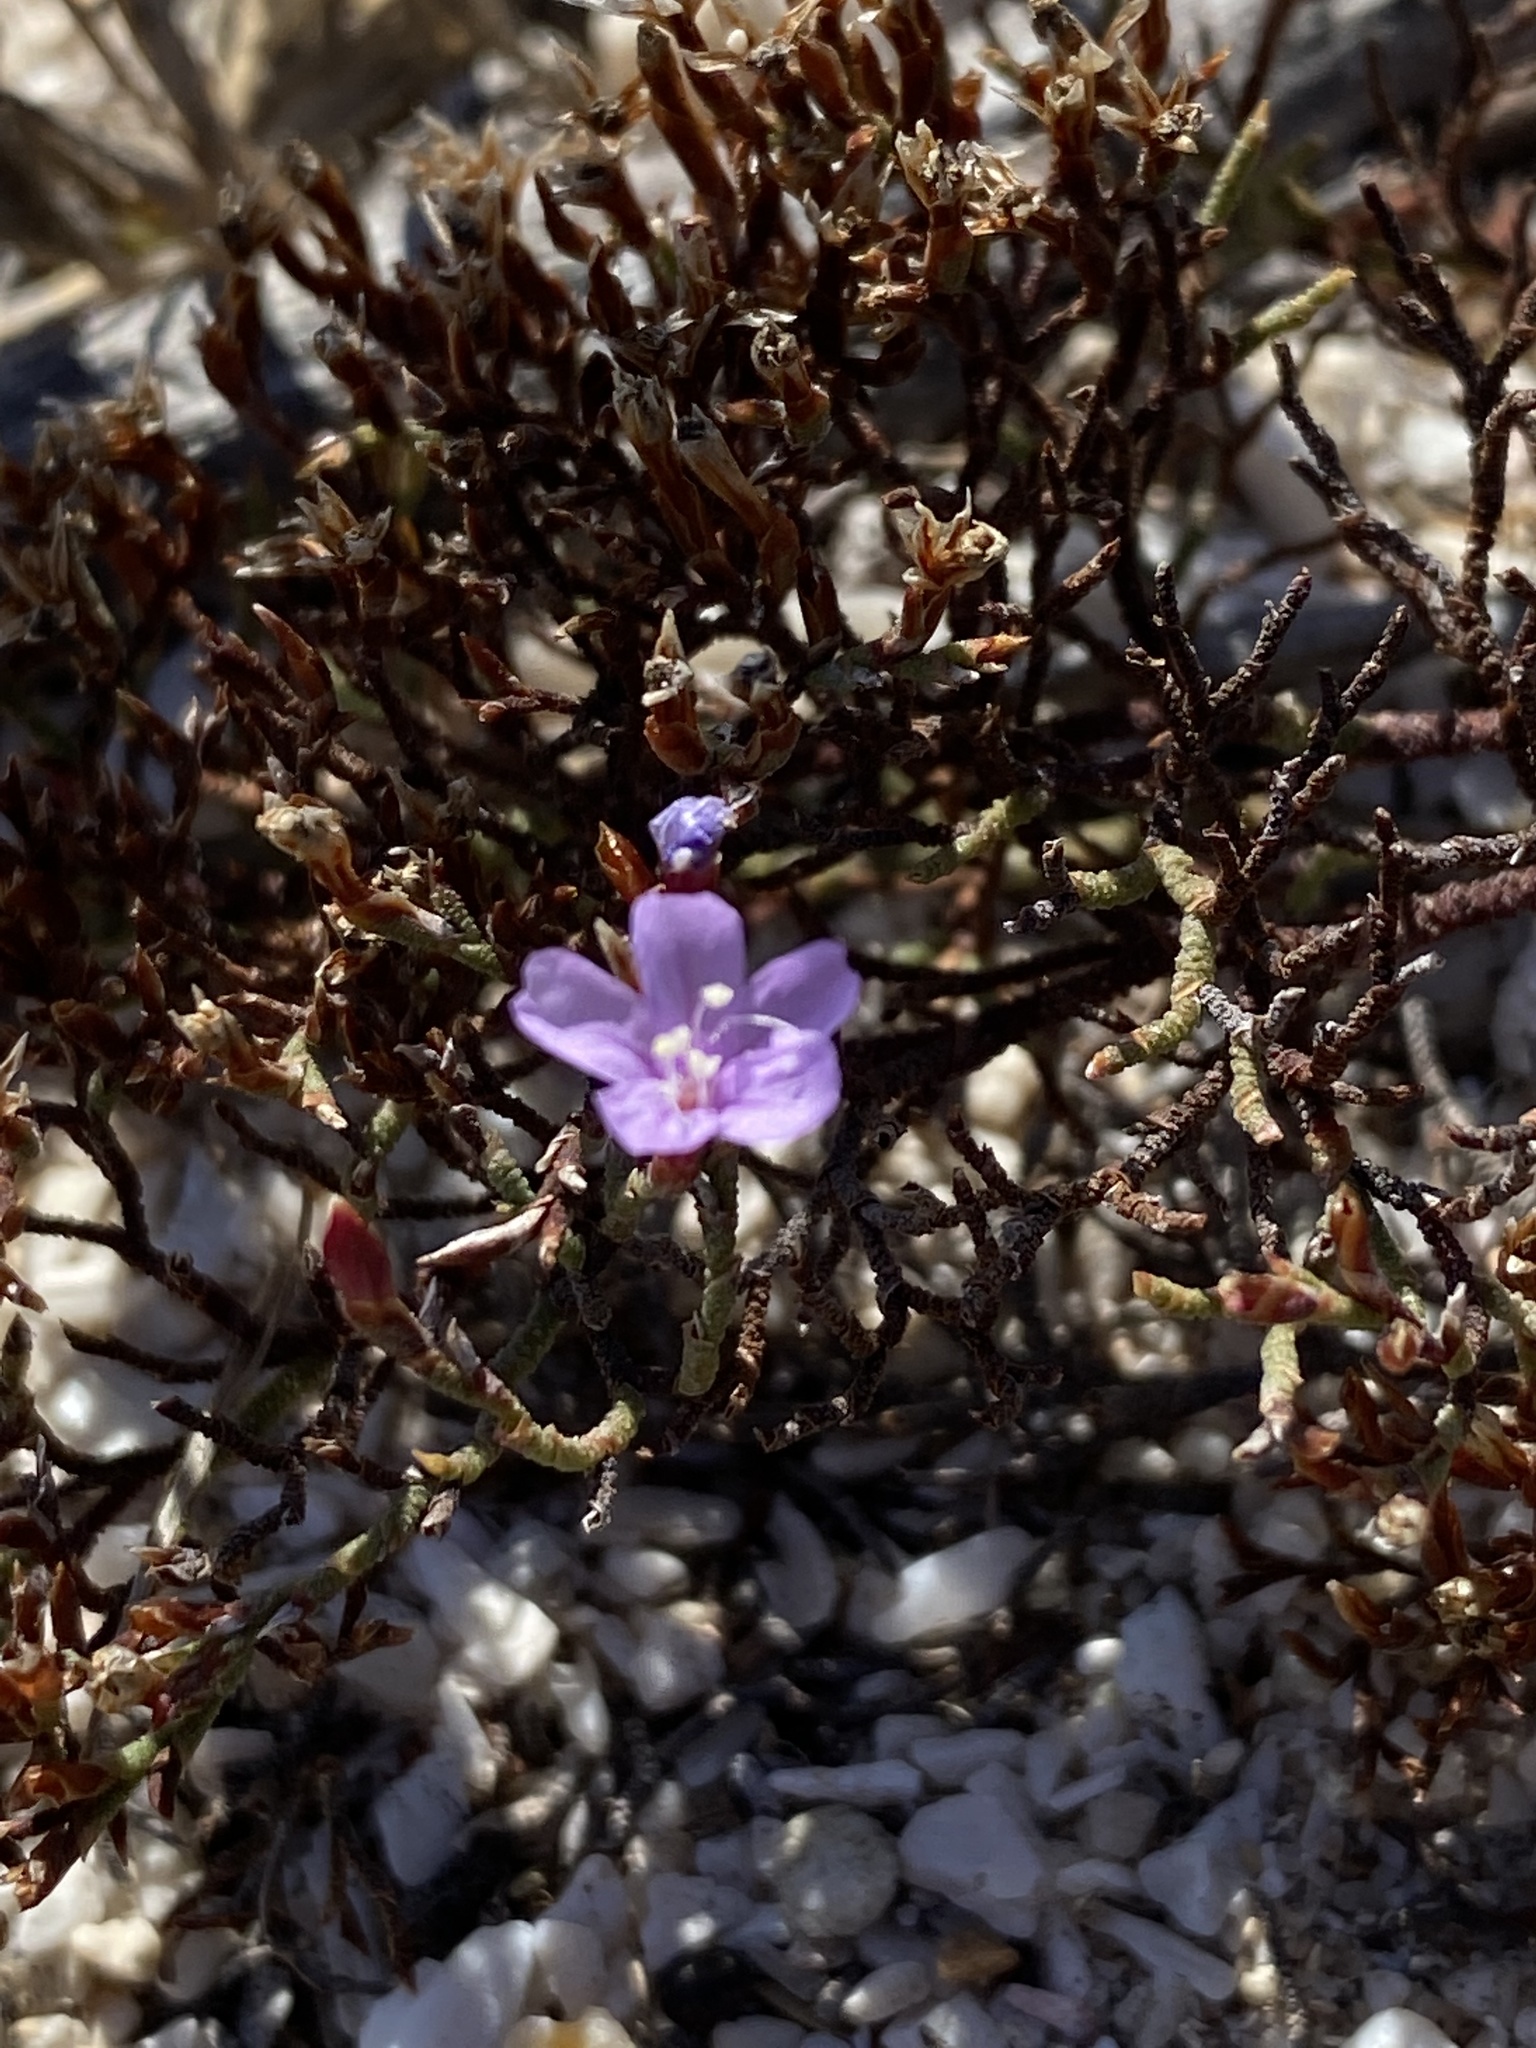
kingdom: Plantae
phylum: Tracheophyta
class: Magnoliopsida
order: Caryophyllales
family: Plumbaginaceae
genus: Limonium
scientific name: Limonium scabrum
